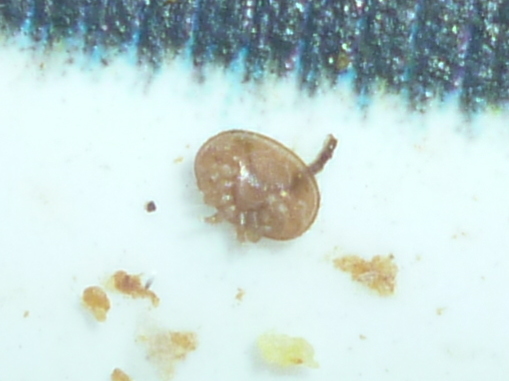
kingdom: Animalia
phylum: Arthropoda
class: Arachnida
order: Mesostigmata
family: Varroidae
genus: Varroa
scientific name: Varroa destructor
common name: Honey bee mite
